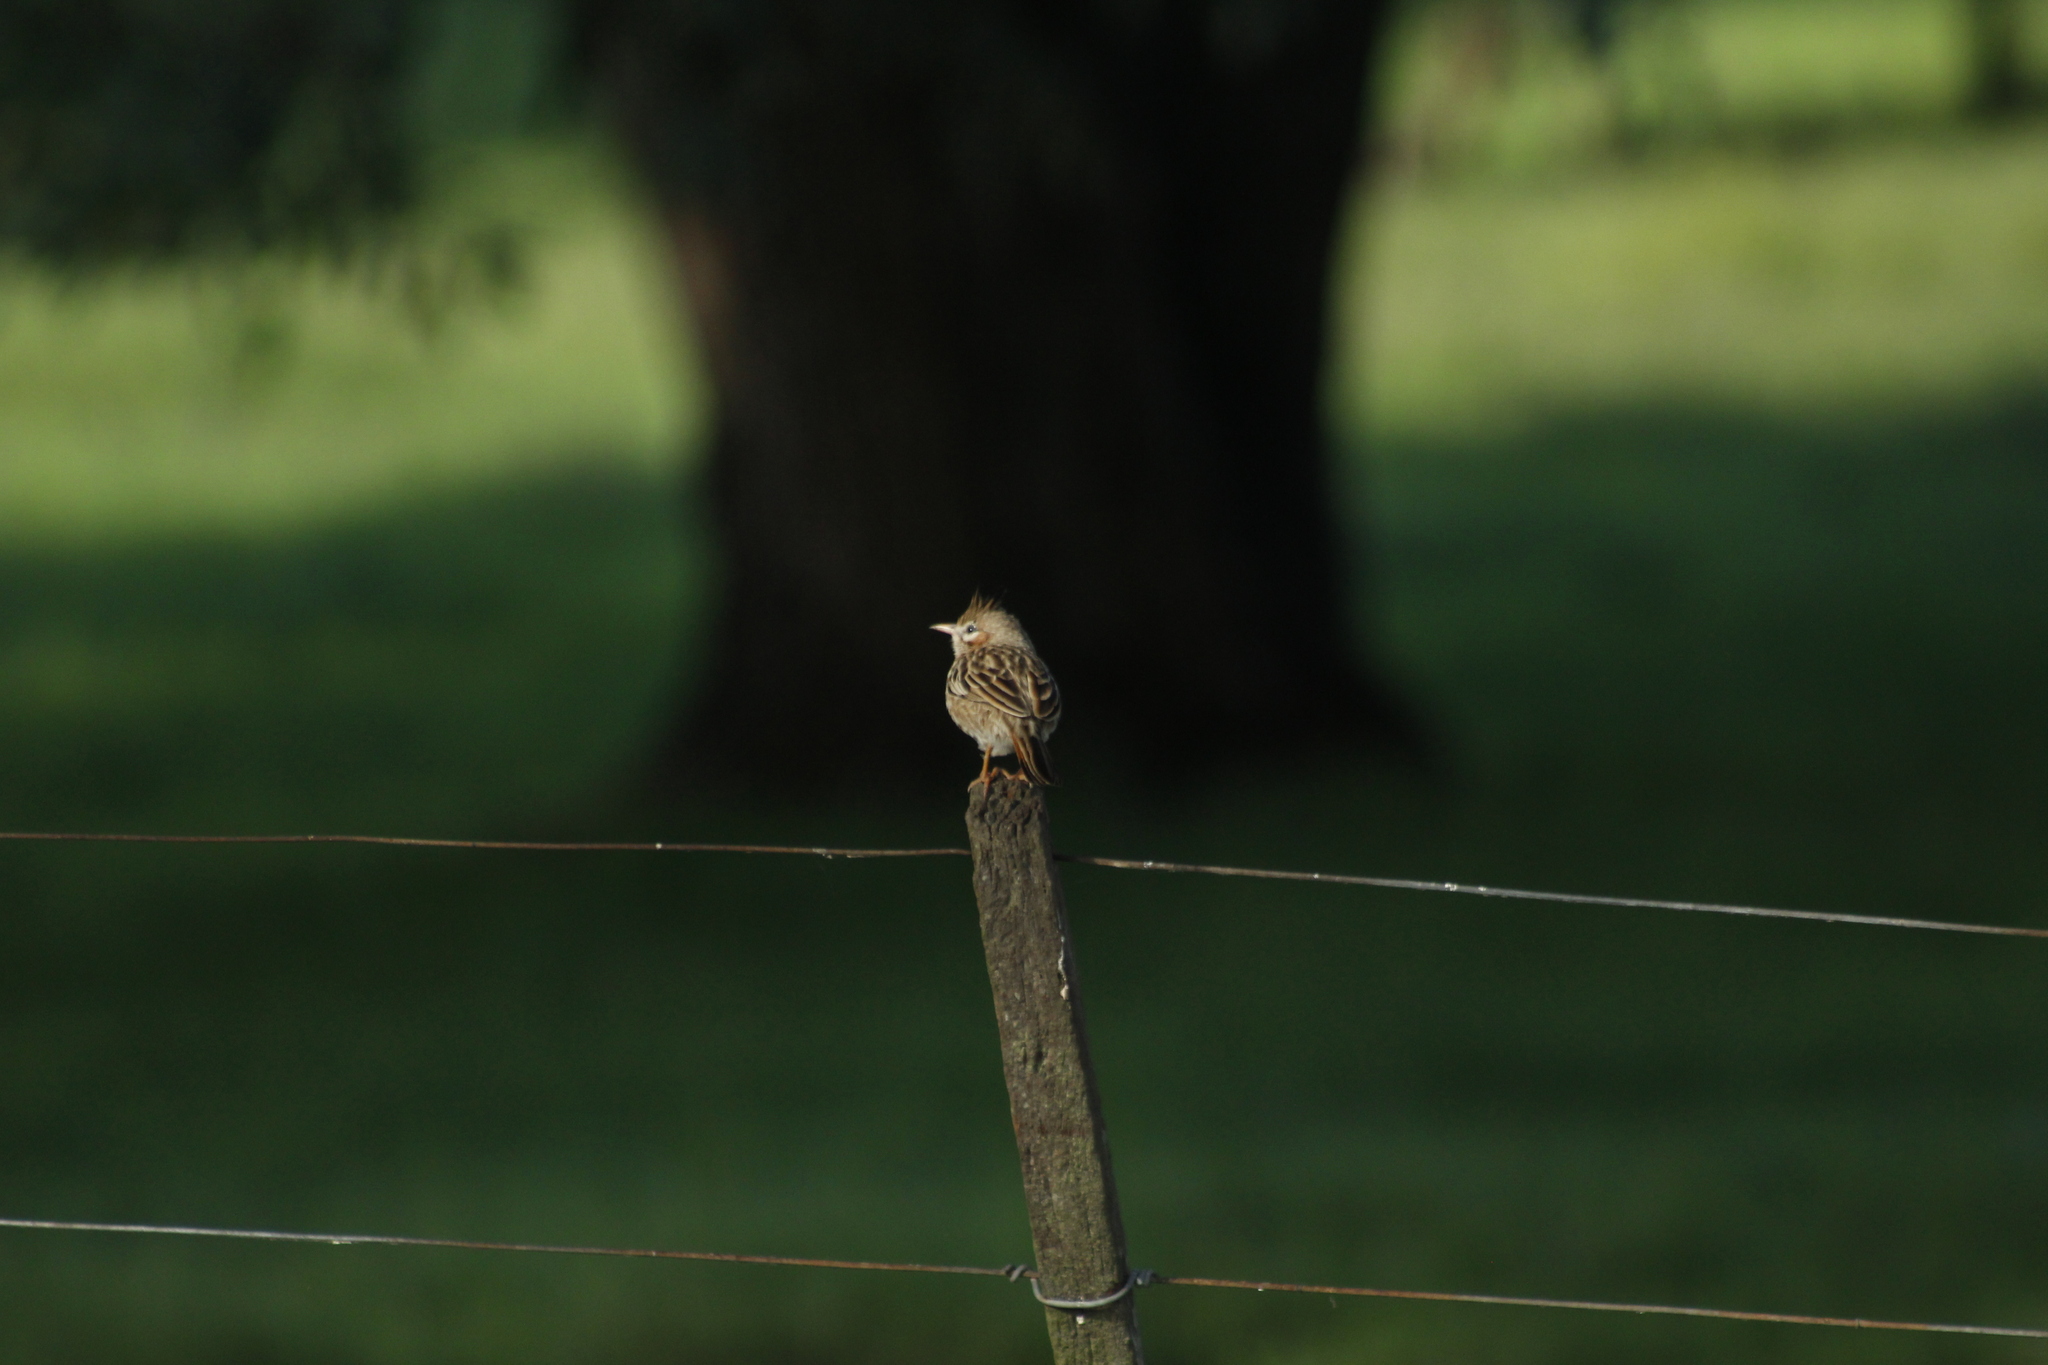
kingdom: Animalia
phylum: Chordata
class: Aves
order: Passeriformes
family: Furnariidae
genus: Coryphistera
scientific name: Coryphistera alaudina
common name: Lark-like brushrunner
